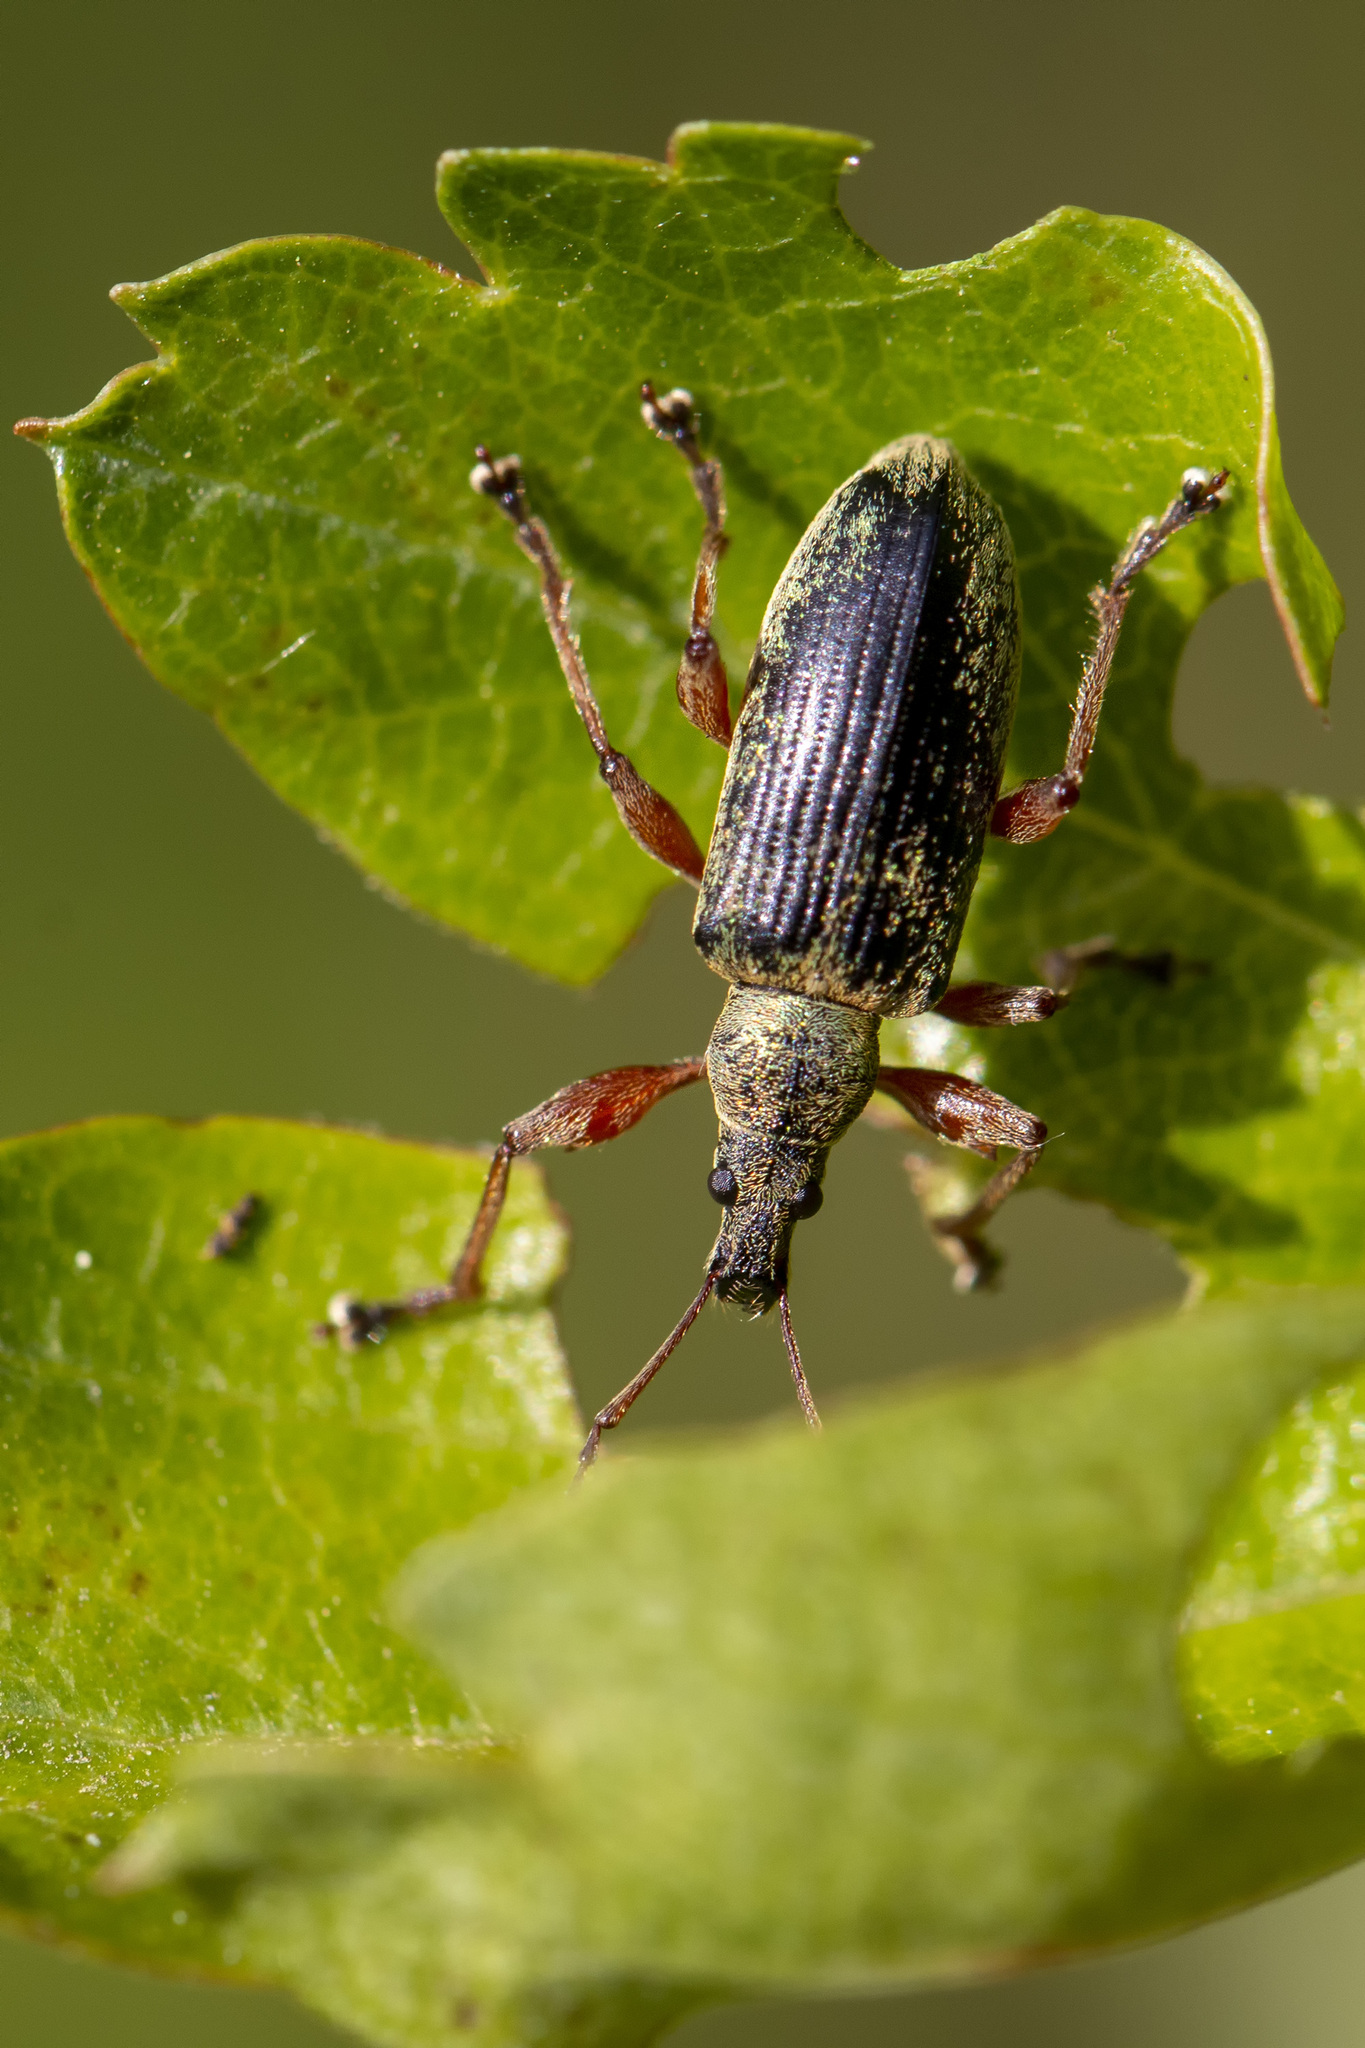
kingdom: Animalia
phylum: Arthropoda
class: Insecta
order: Coleoptera
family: Curculionidae
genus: Phyllobius
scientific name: Phyllobius glaucus
